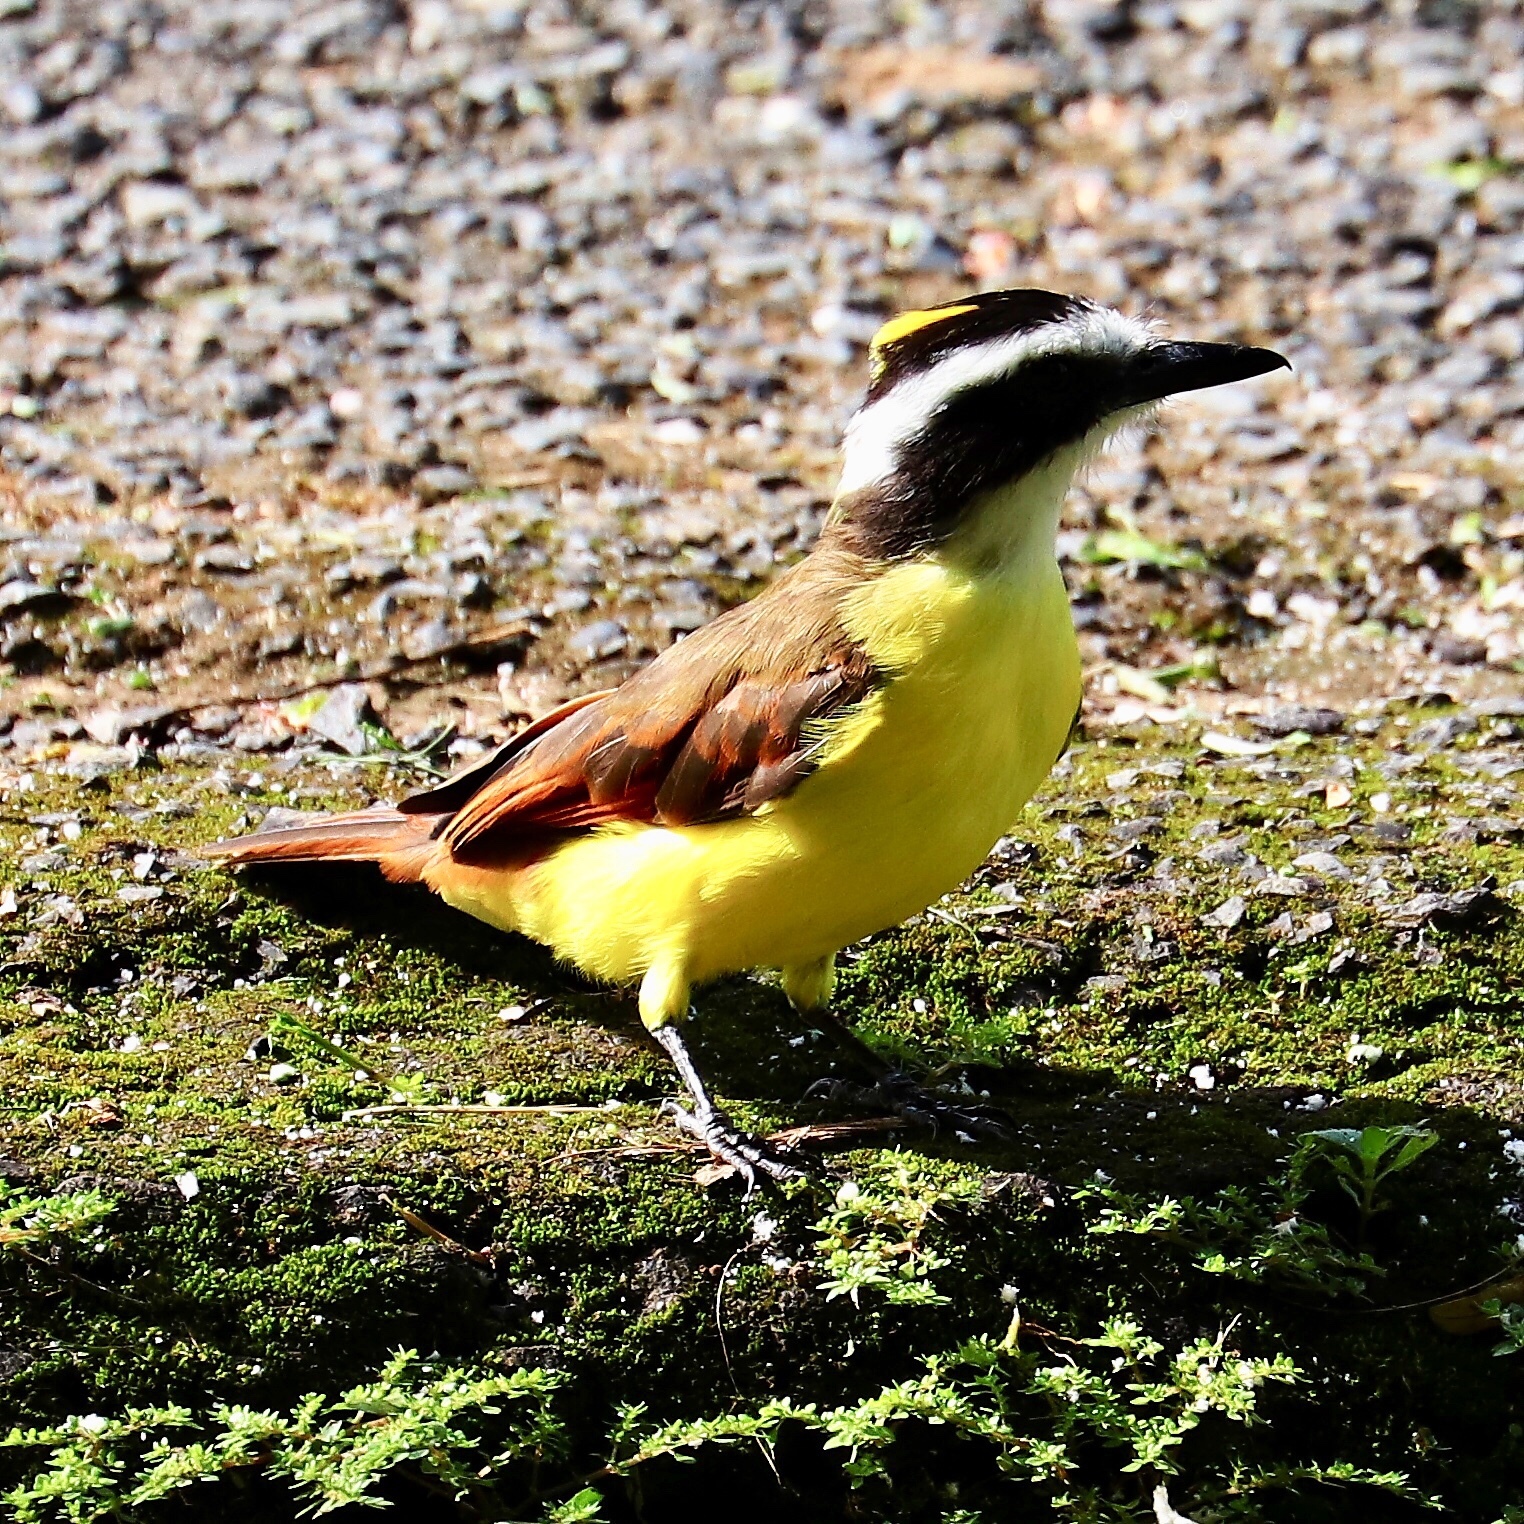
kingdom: Animalia
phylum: Chordata
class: Aves
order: Passeriformes
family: Tyrannidae
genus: Pitangus
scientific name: Pitangus sulphuratus
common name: Great kiskadee
